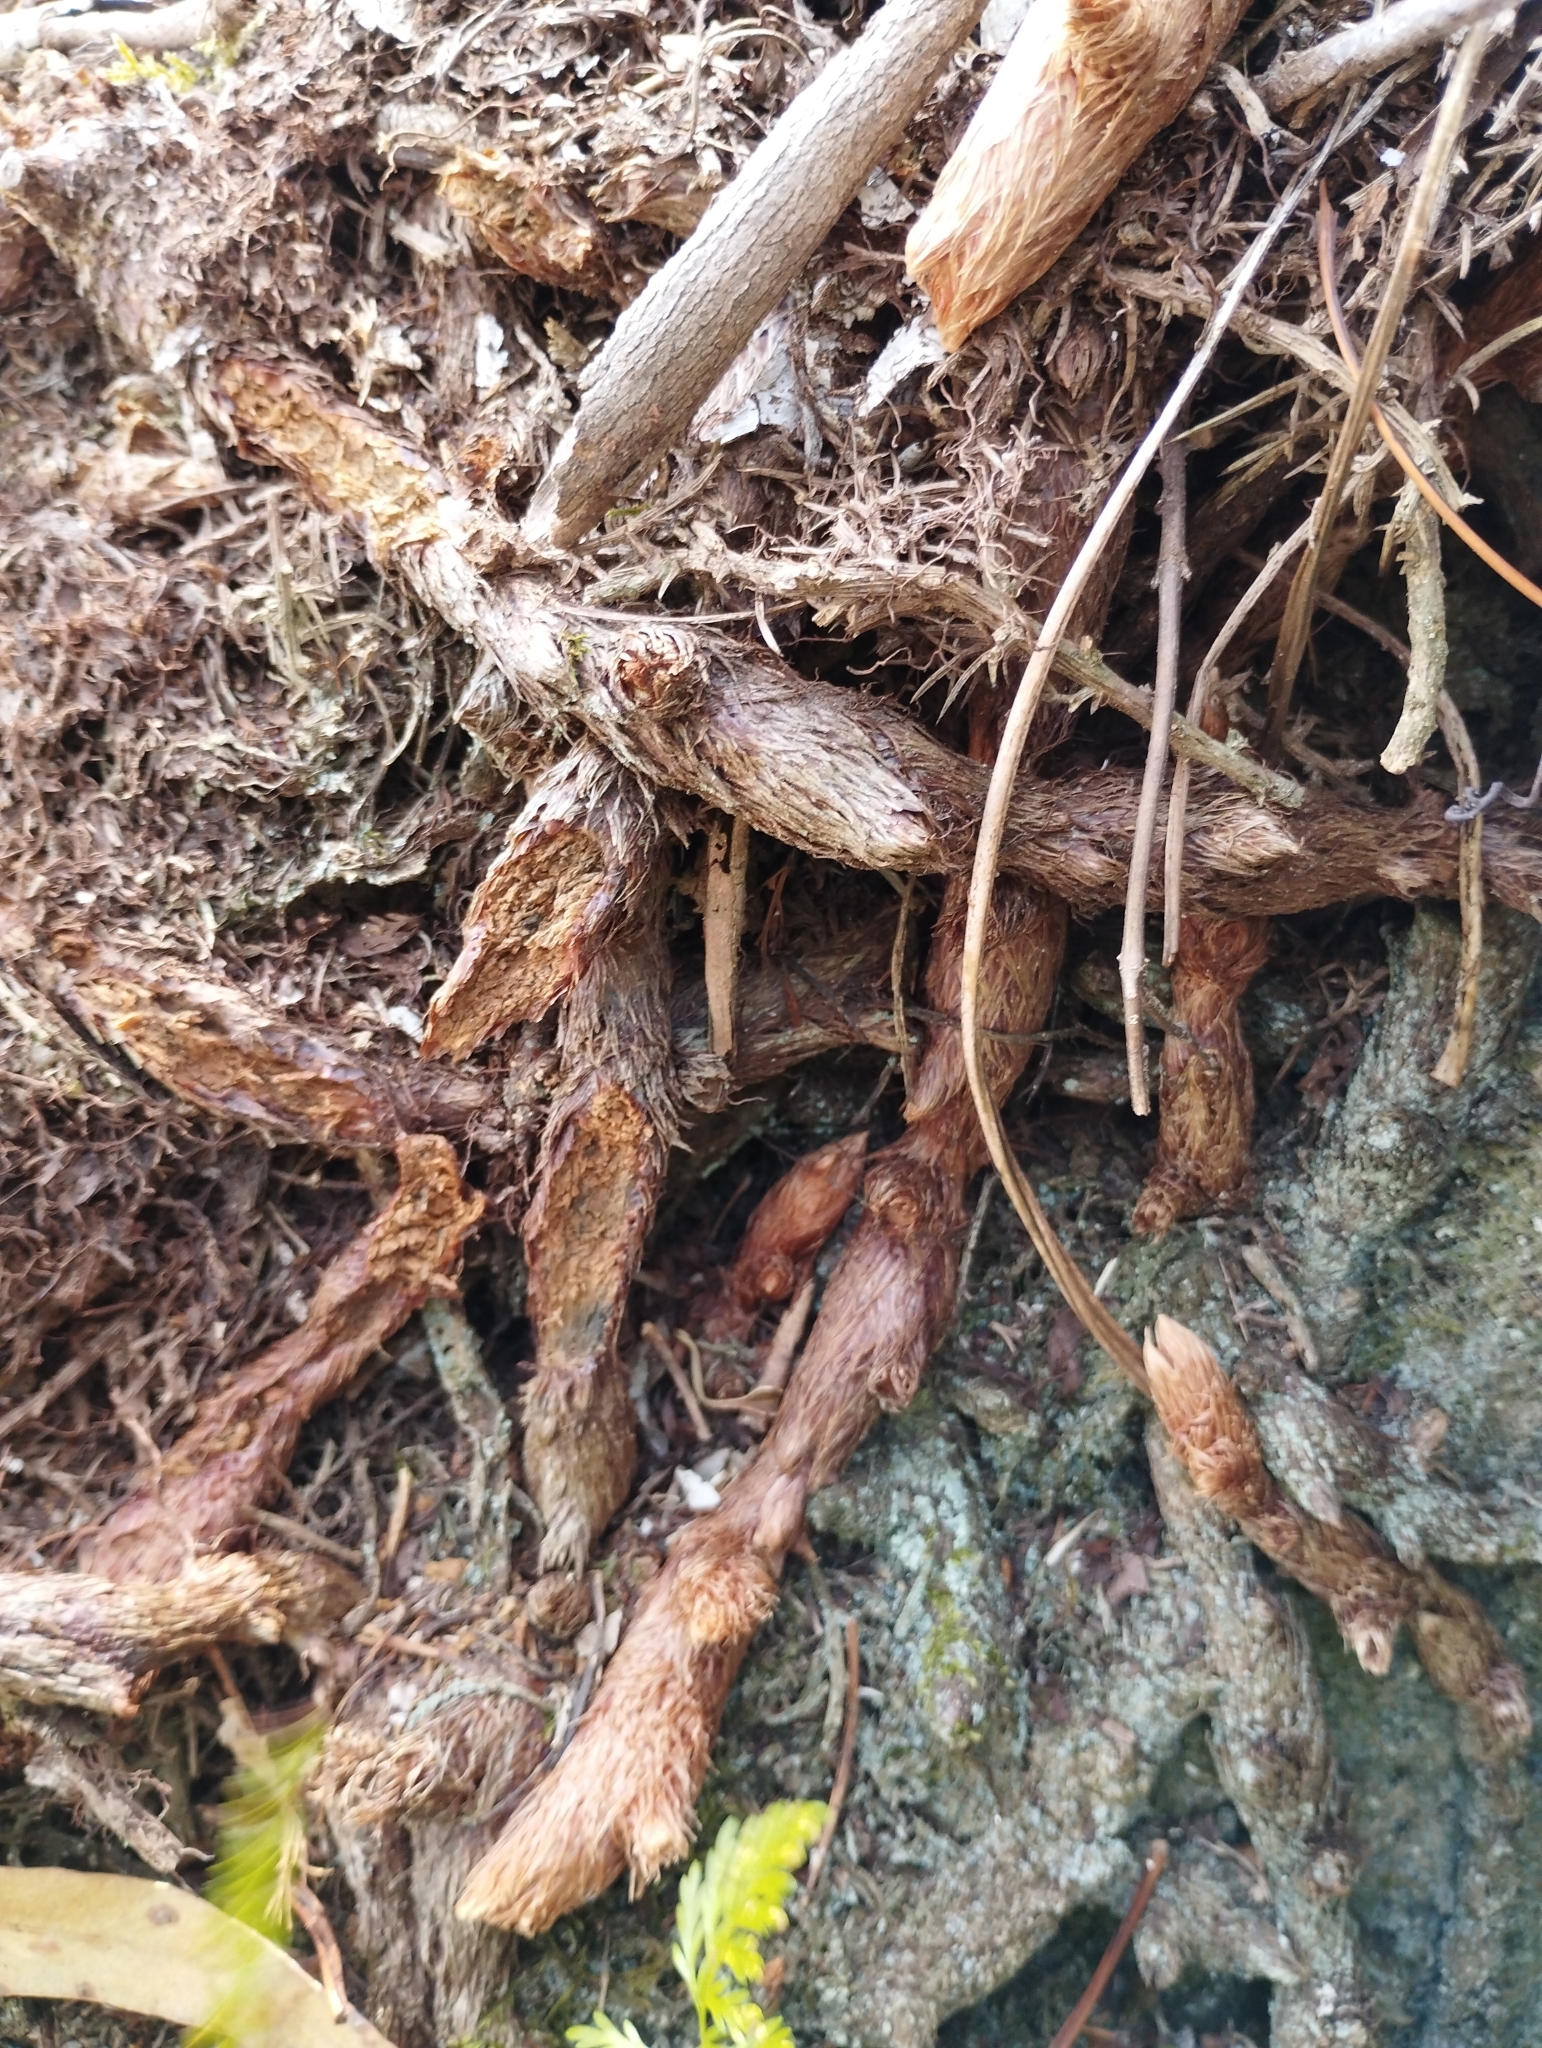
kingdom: Plantae
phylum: Tracheophyta
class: Polypodiopsida
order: Polypodiales
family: Davalliaceae
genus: Davallia
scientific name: Davallia canariensis
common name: Hare's-foot fern
